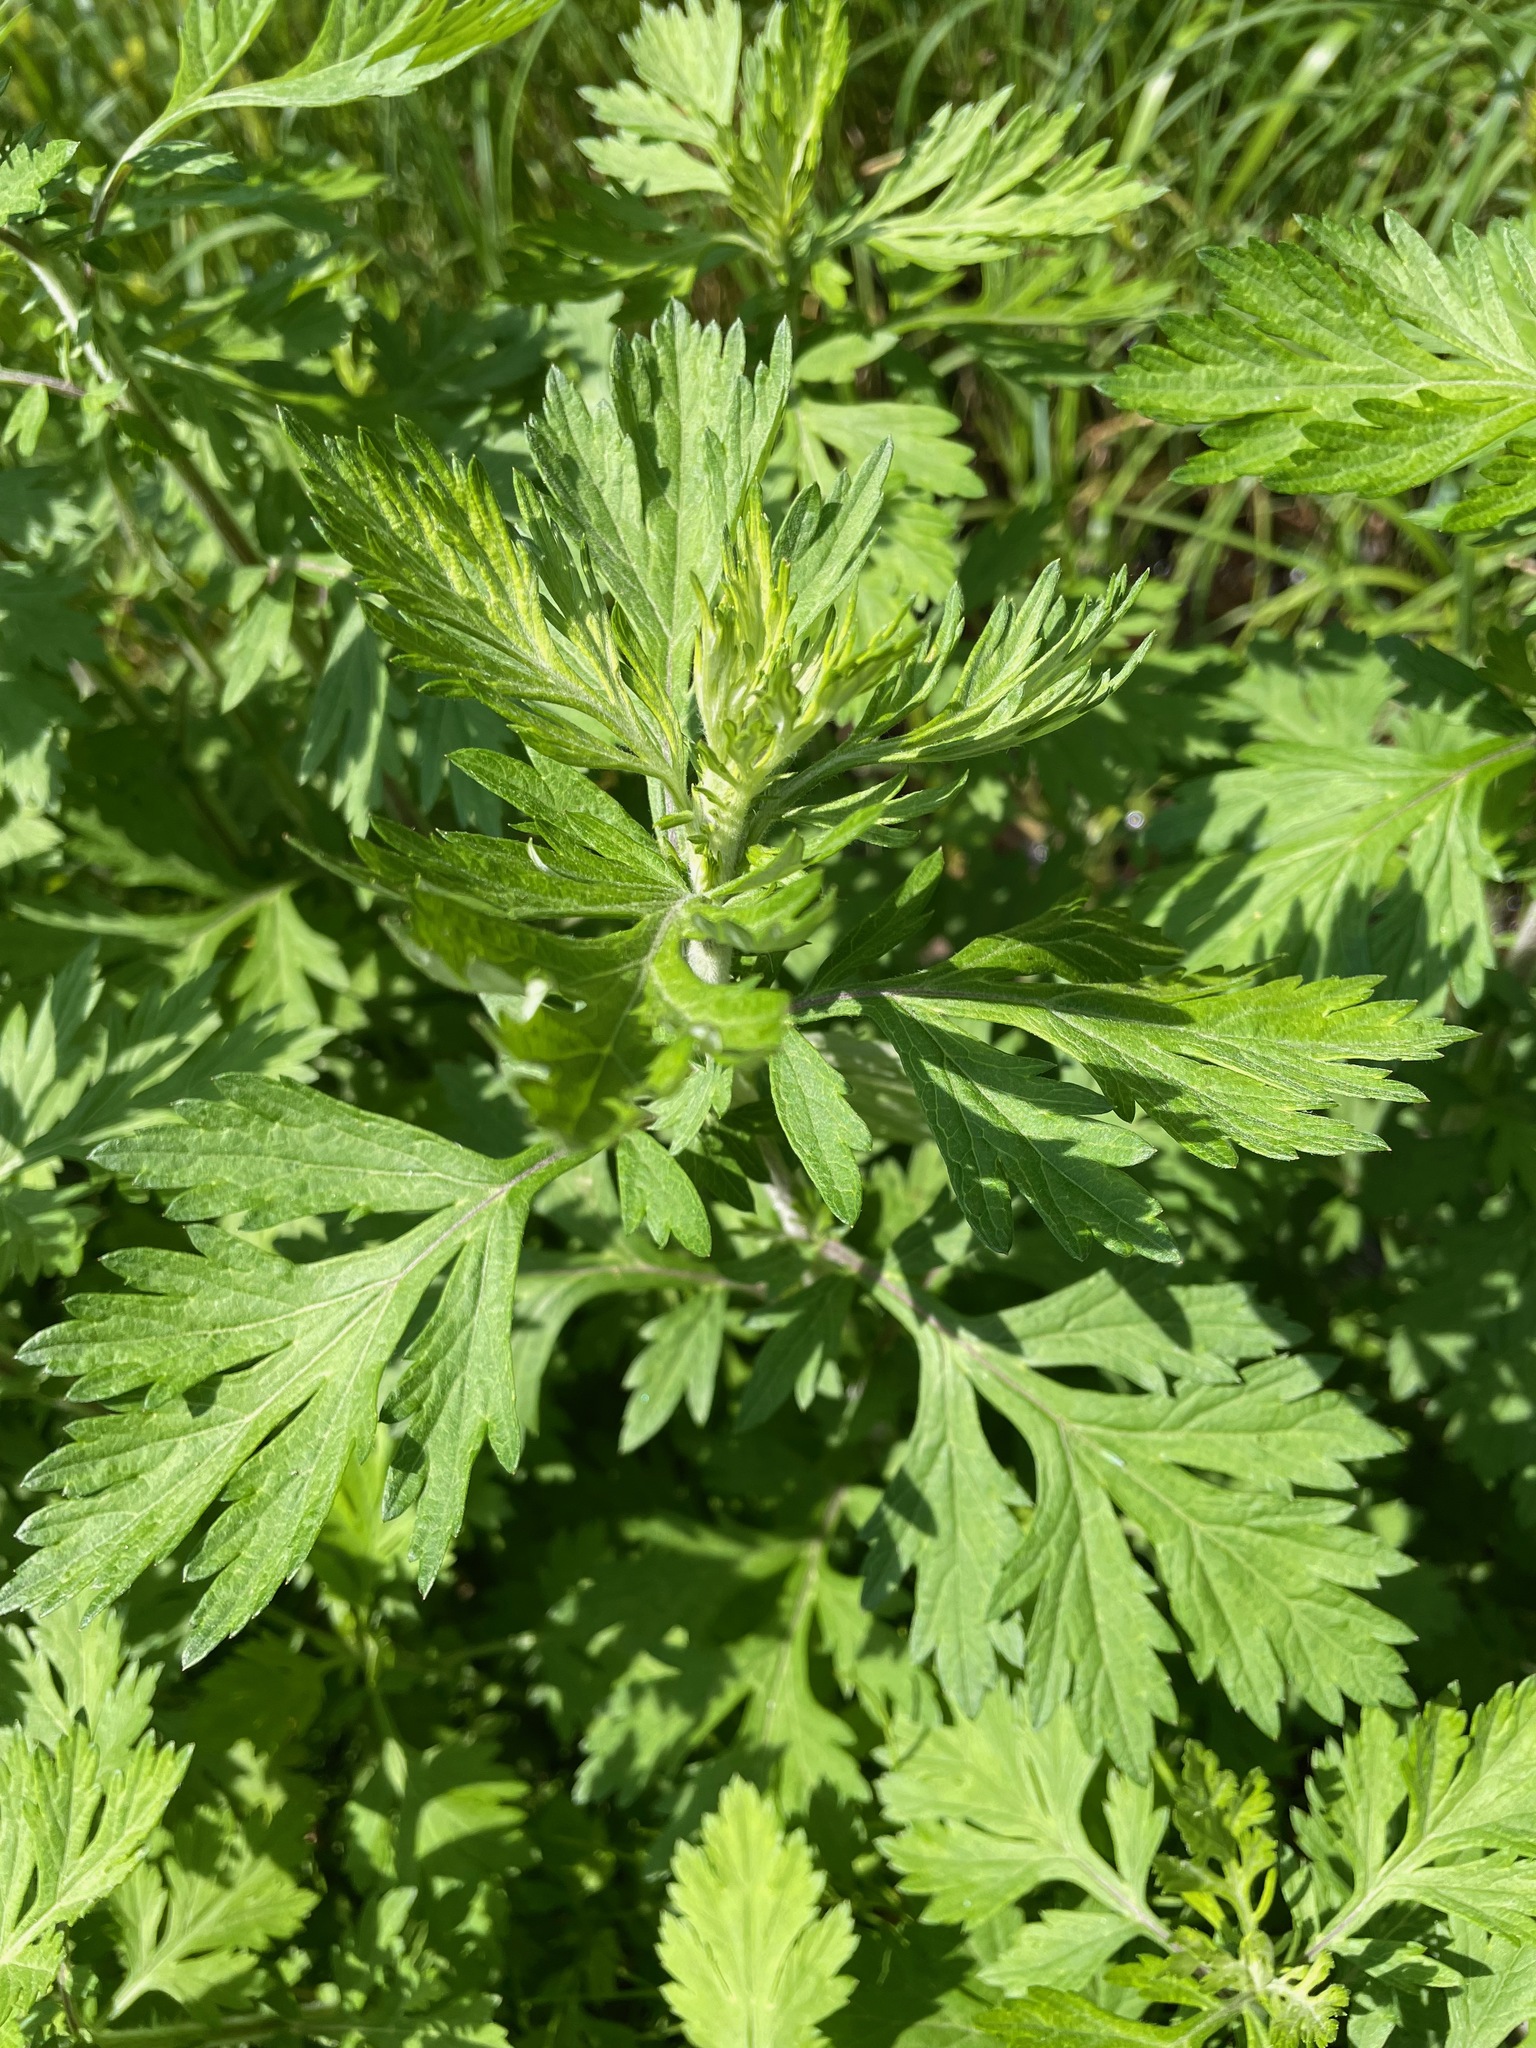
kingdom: Plantae
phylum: Tracheophyta
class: Magnoliopsida
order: Asterales
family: Asteraceae
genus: Artemisia
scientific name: Artemisia vulgaris
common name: Mugwort
